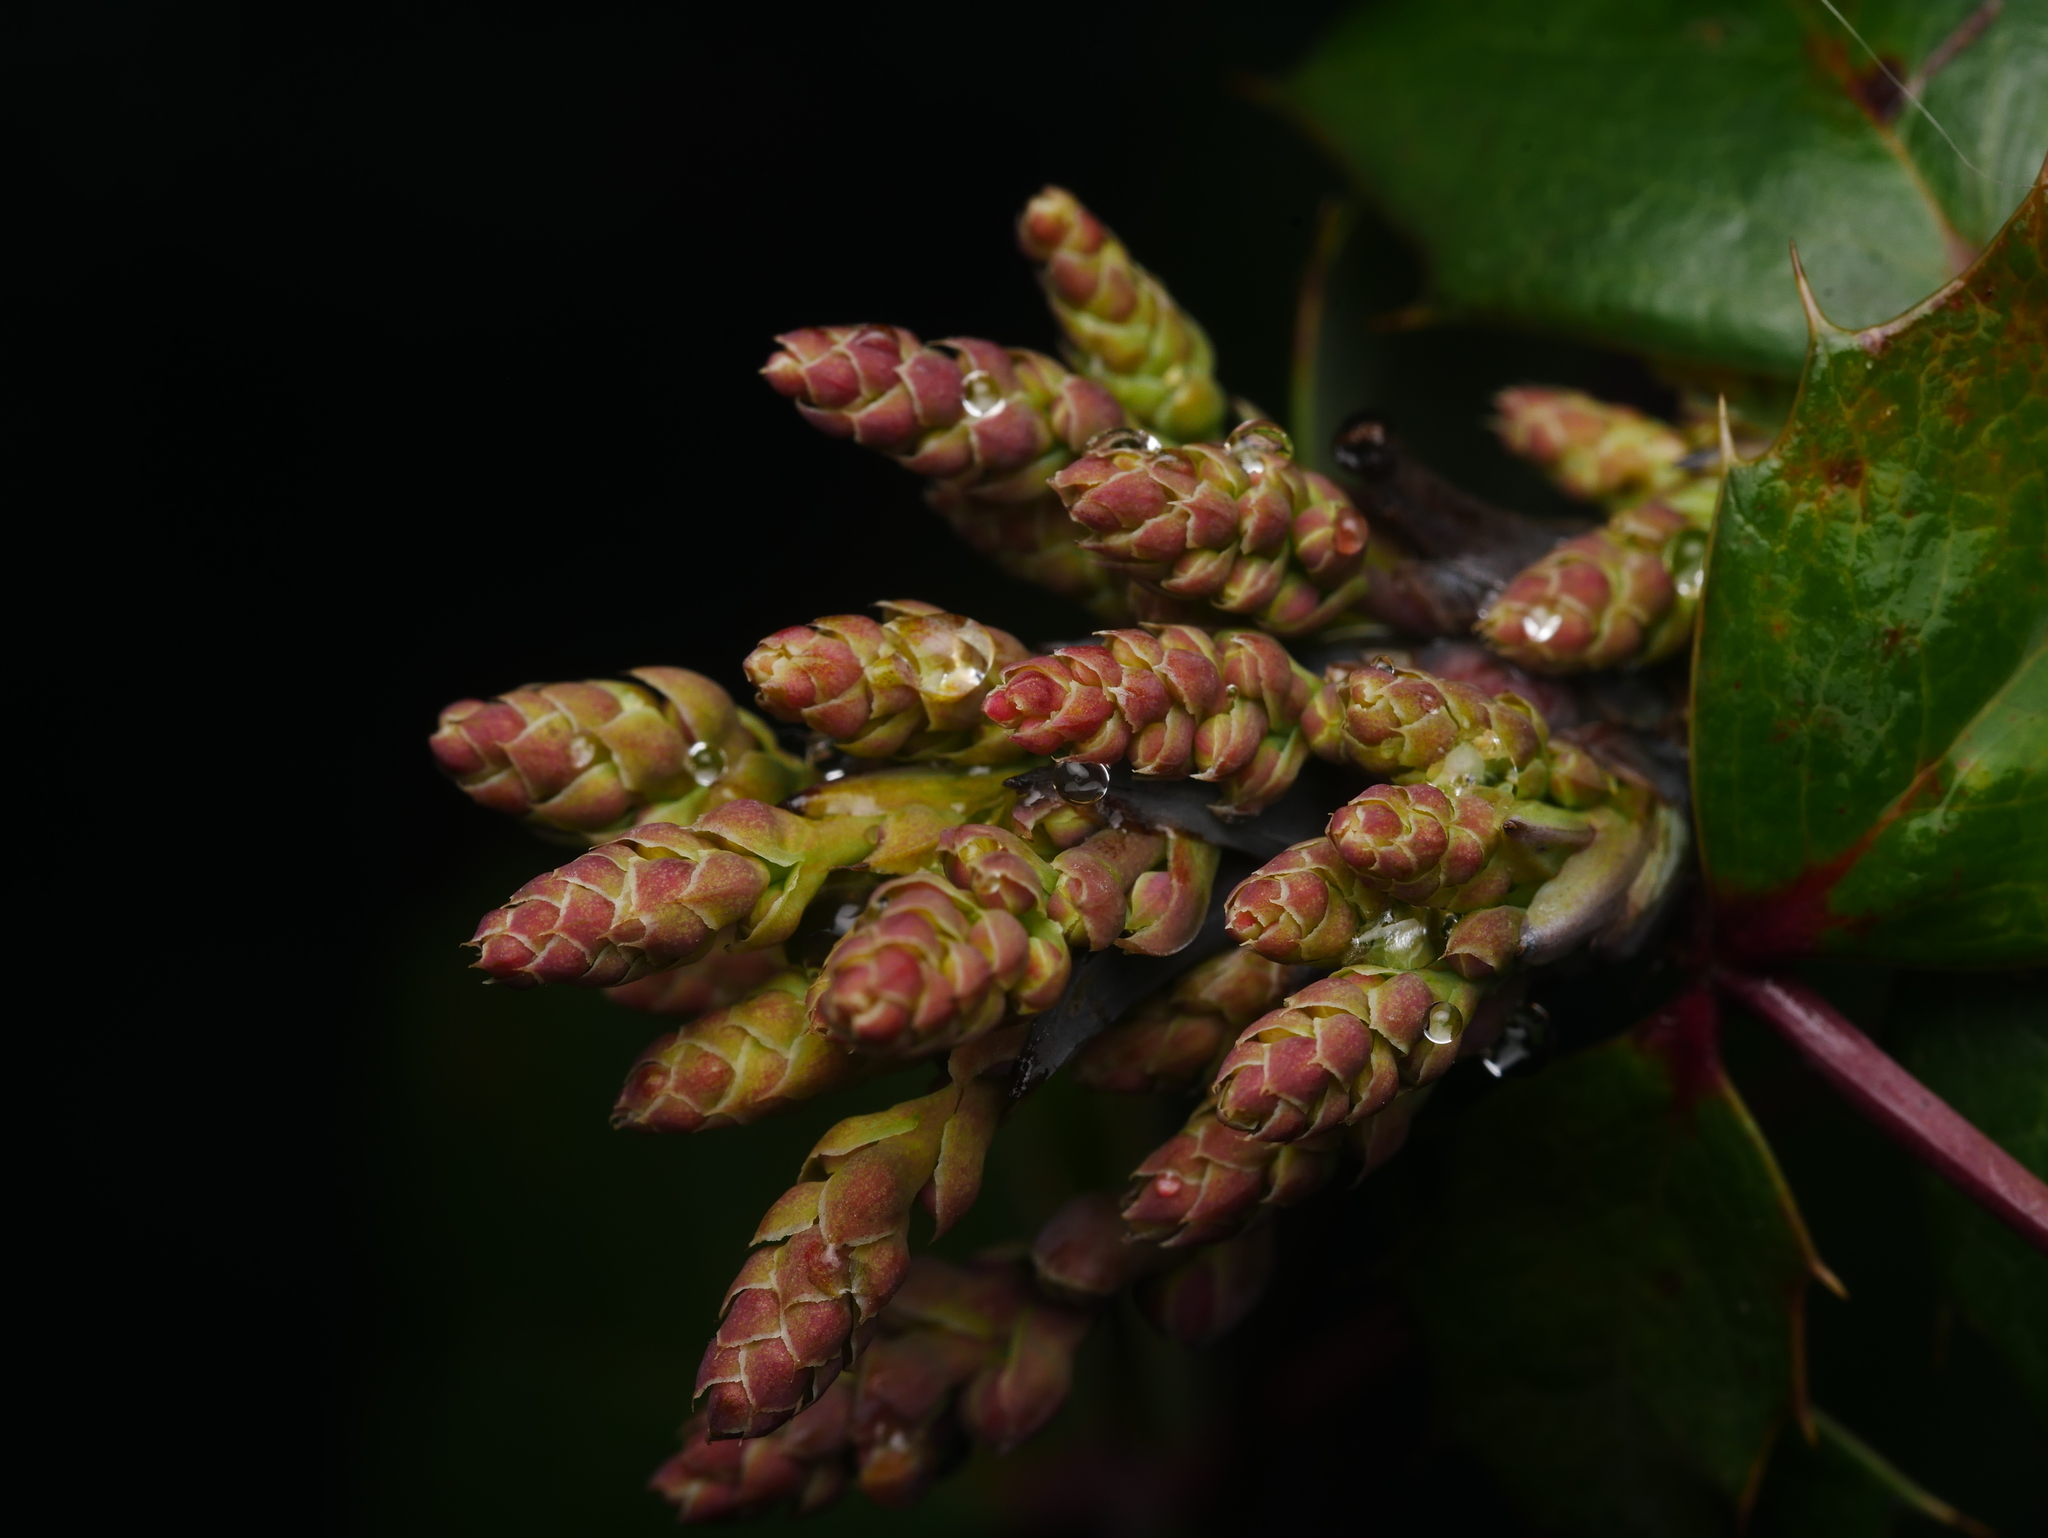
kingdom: Plantae
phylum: Tracheophyta
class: Magnoliopsida
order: Ranunculales
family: Berberidaceae
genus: Mahonia
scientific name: Mahonia aquifolium
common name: Oregon-grape
